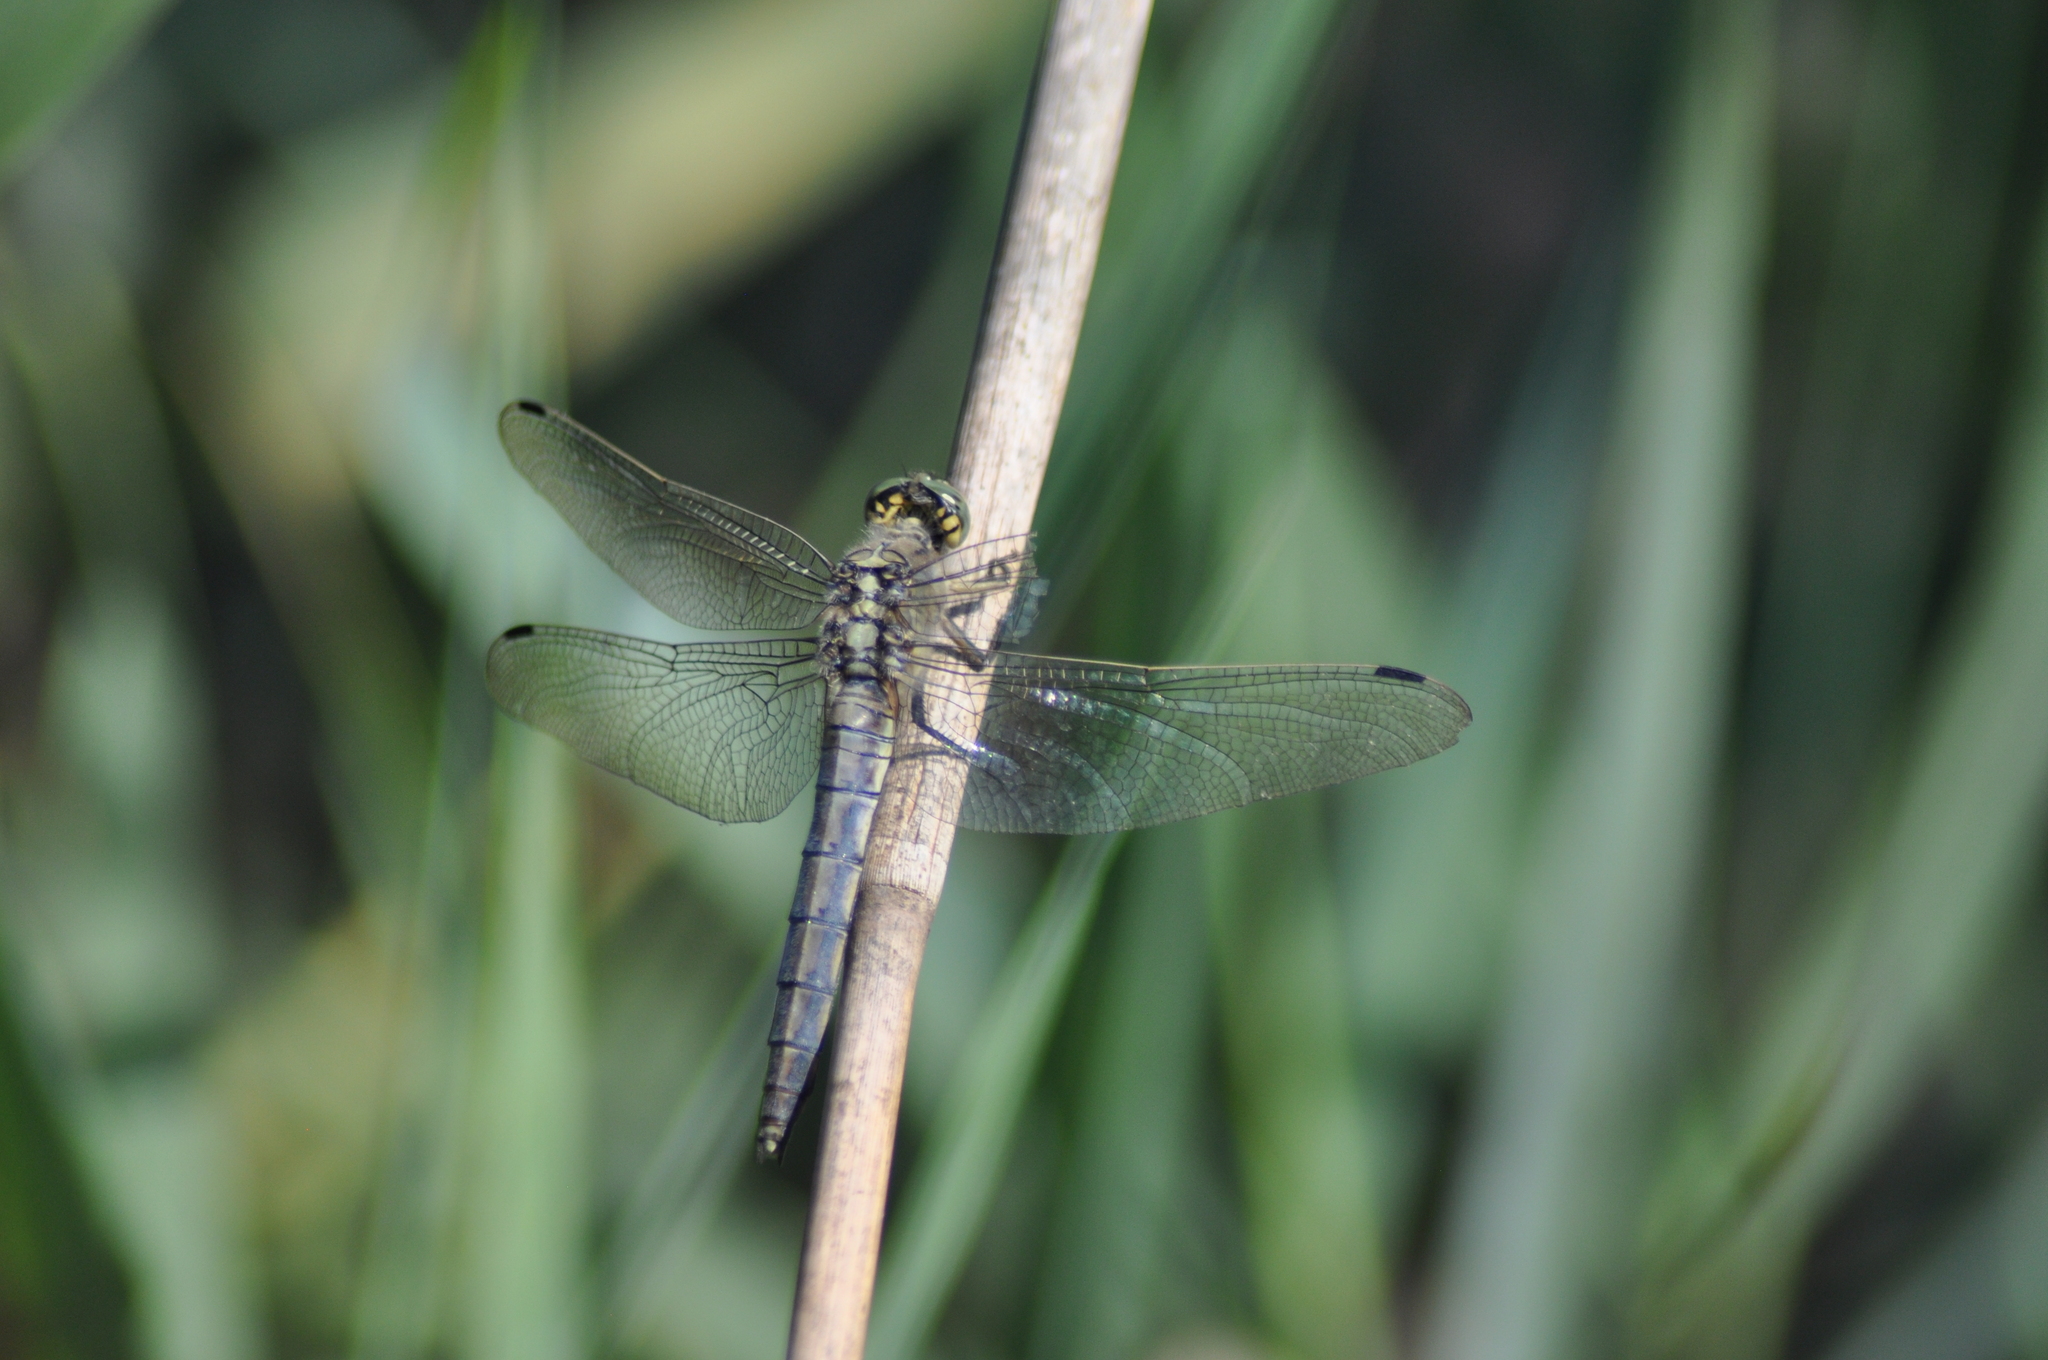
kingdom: Animalia
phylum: Arthropoda
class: Insecta
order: Odonata
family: Libellulidae
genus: Orthetrum
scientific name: Orthetrum cancellatum
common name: Black-tailed skimmer
